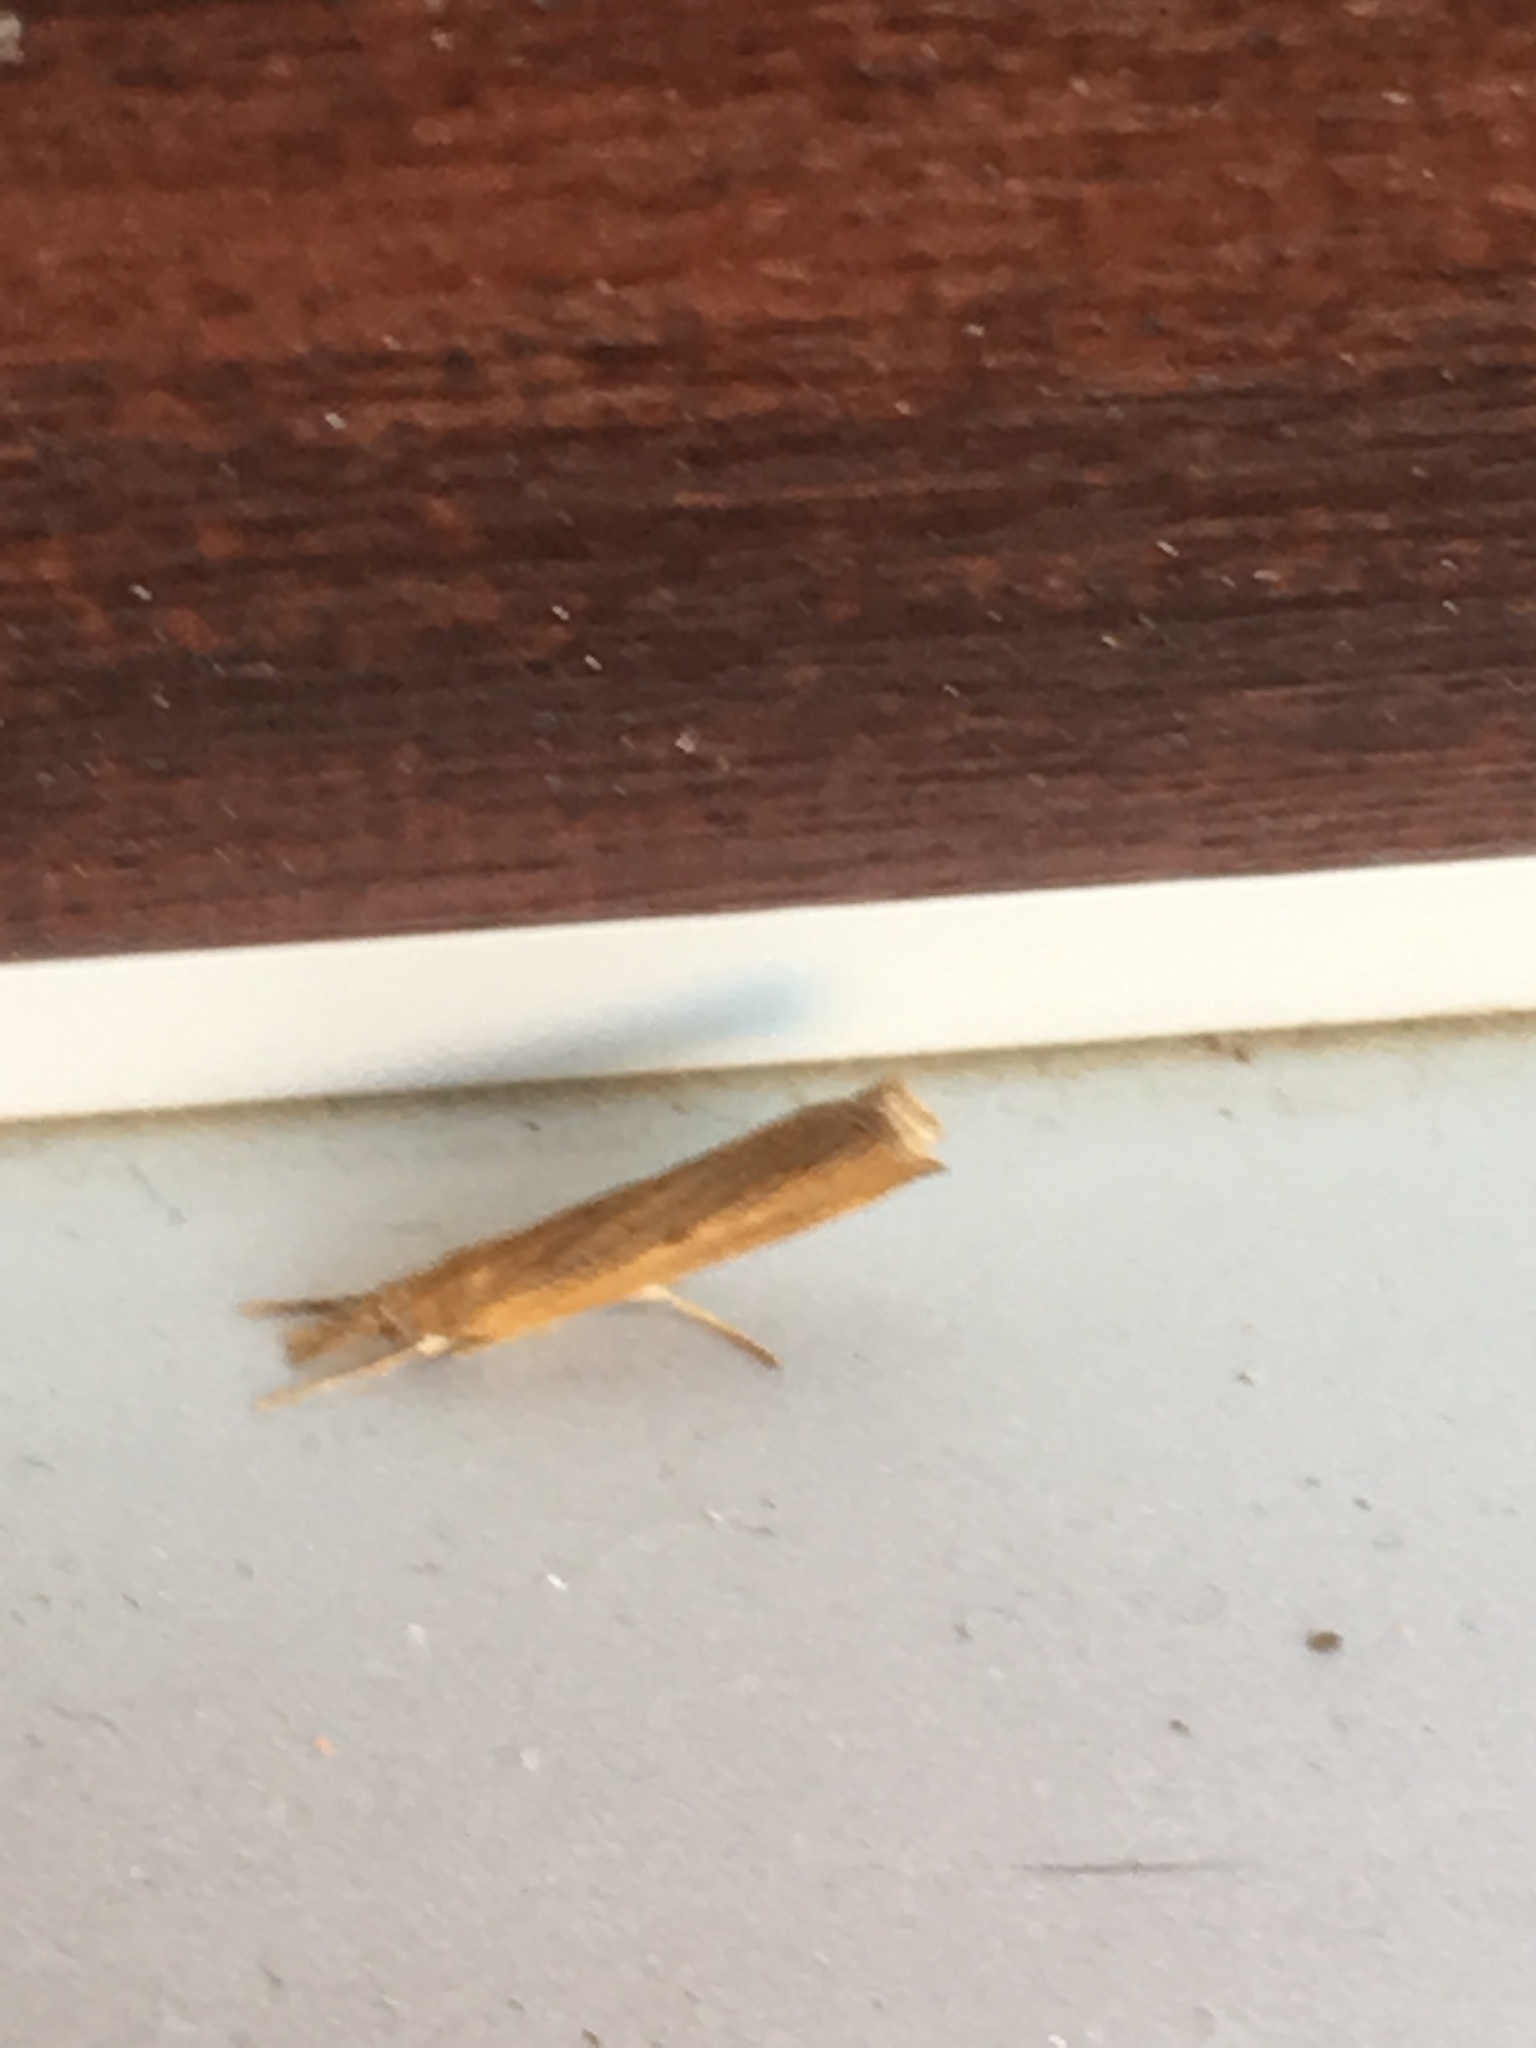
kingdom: Animalia
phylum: Arthropoda
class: Insecta
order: Lepidoptera
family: Crambidae
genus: Pediasia
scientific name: Pediasia contaminella
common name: Waste grass-veneer
